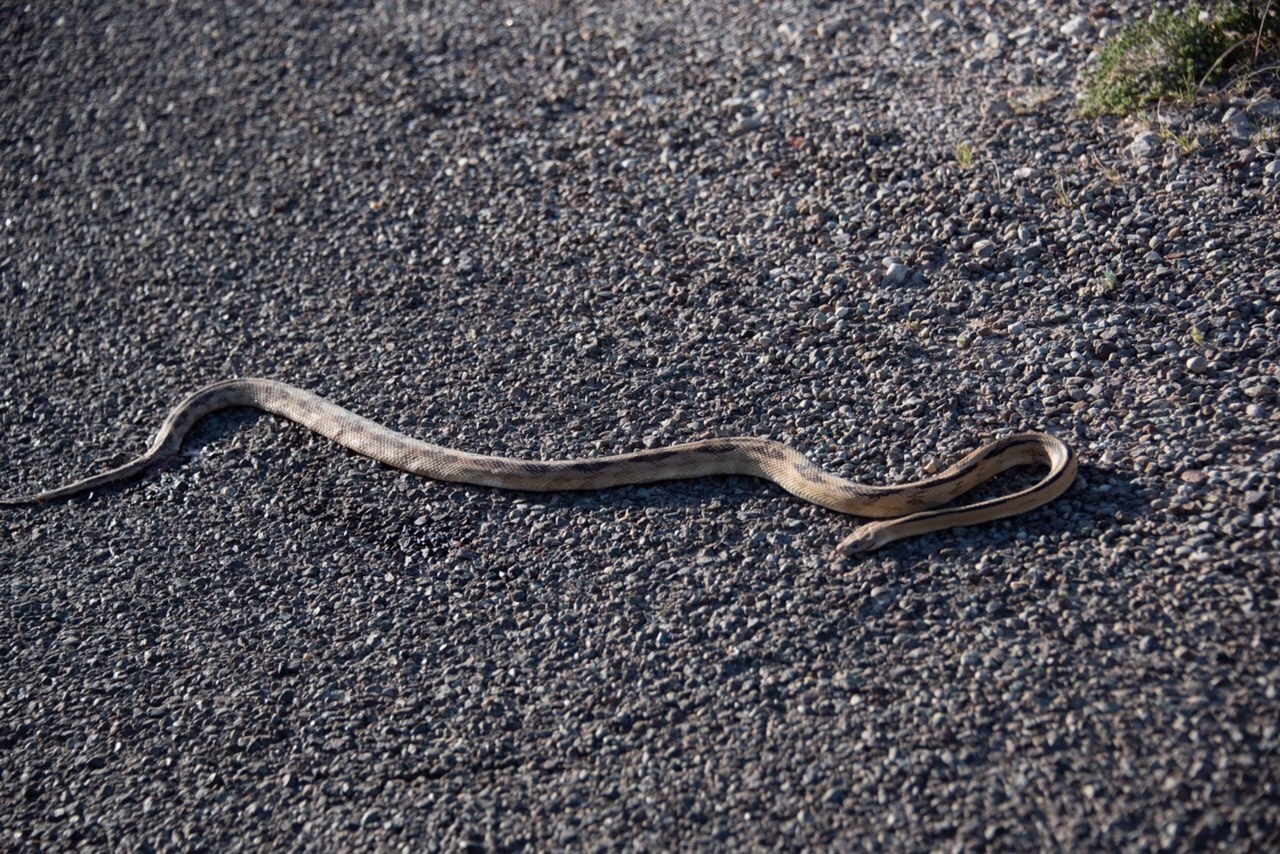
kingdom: Animalia
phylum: Chordata
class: Squamata
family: Colubridae
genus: Bogertophis
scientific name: Bogertophis subocularis
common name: Trans-pecos rat snake
